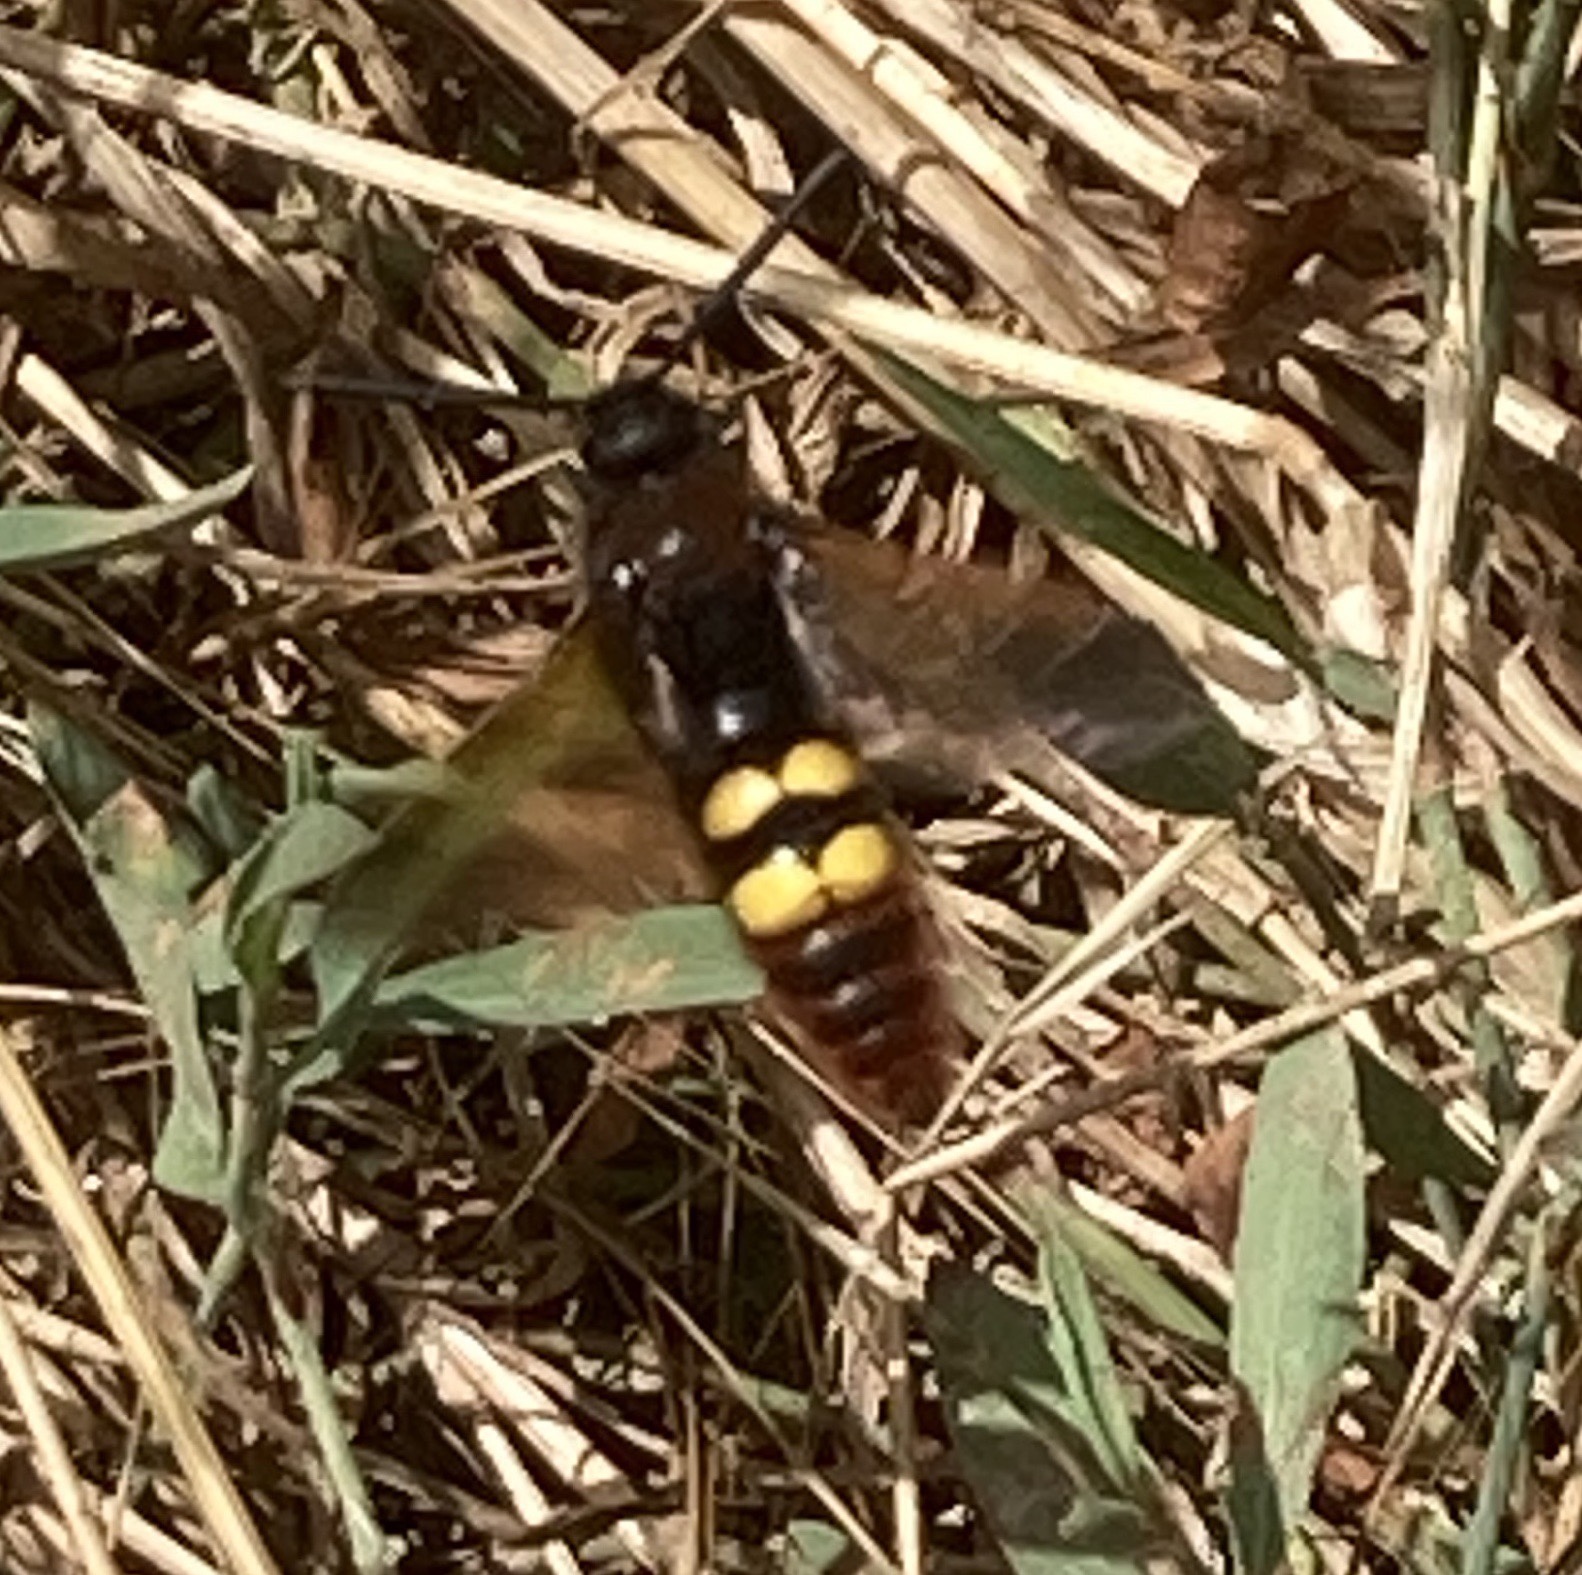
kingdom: Animalia
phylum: Arthropoda
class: Insecta
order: Hymenoptera
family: Scoliidae
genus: Megascolia
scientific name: Megascolia maculata
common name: Mammoth wasp
